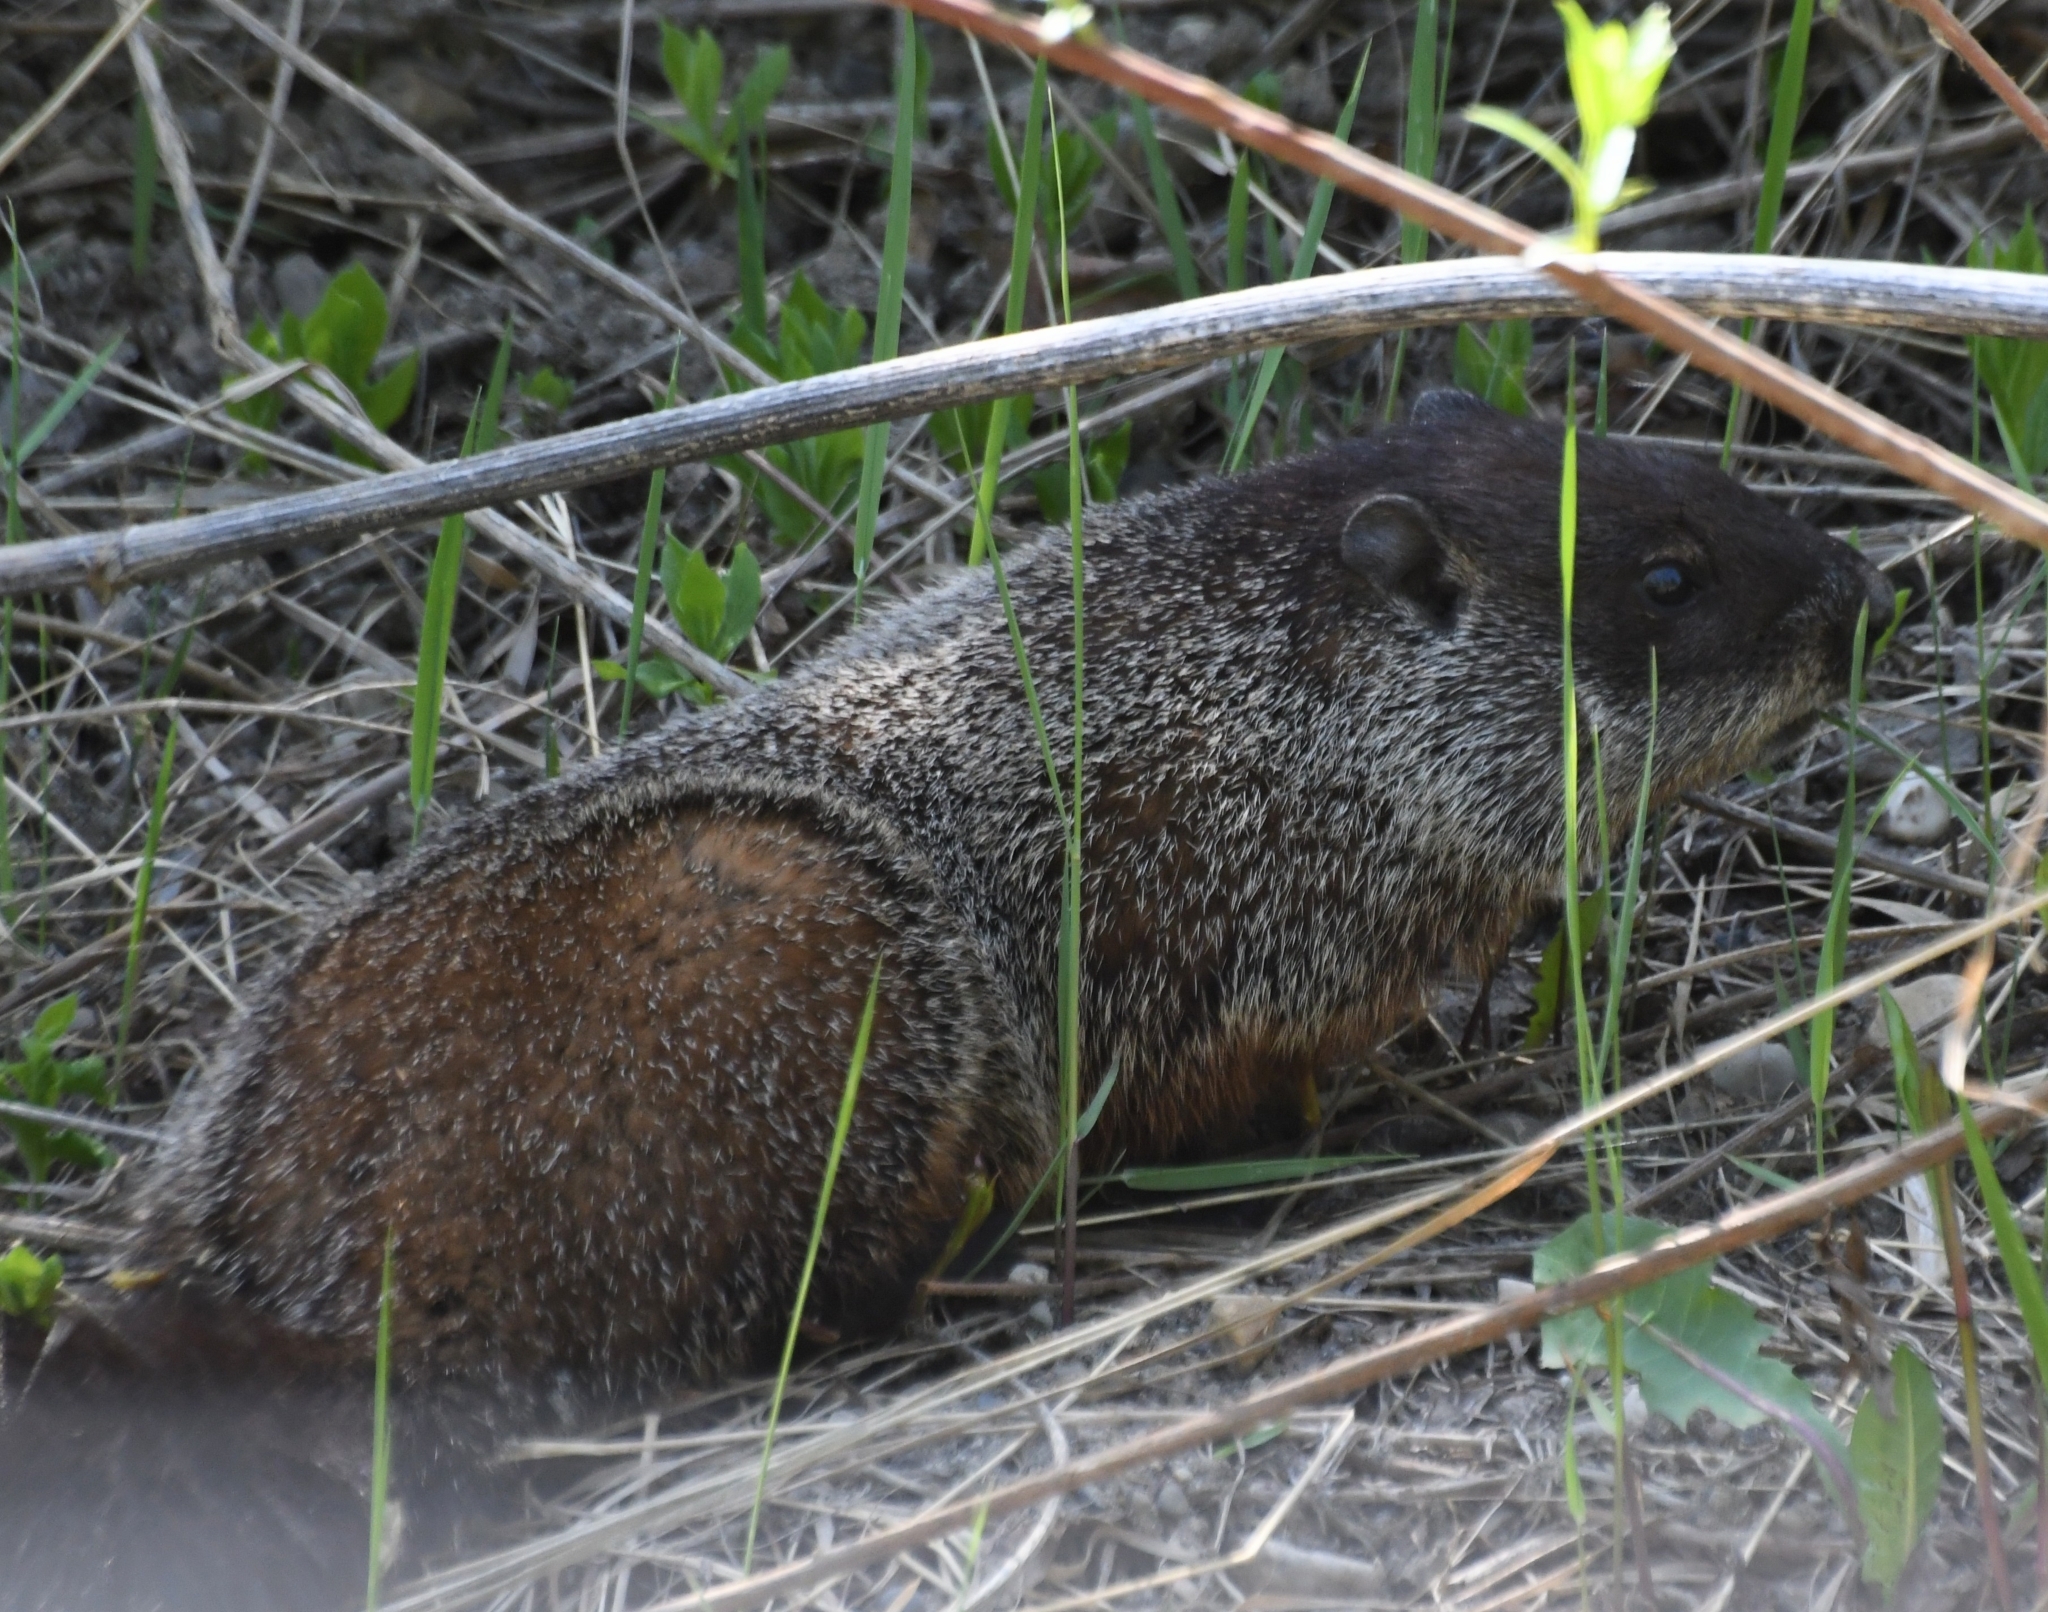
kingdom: Animalia
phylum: Chordata
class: Mammalia
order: Rodentia
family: Sciuridae
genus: Marmota
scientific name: Marmota monax
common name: Groundhog
